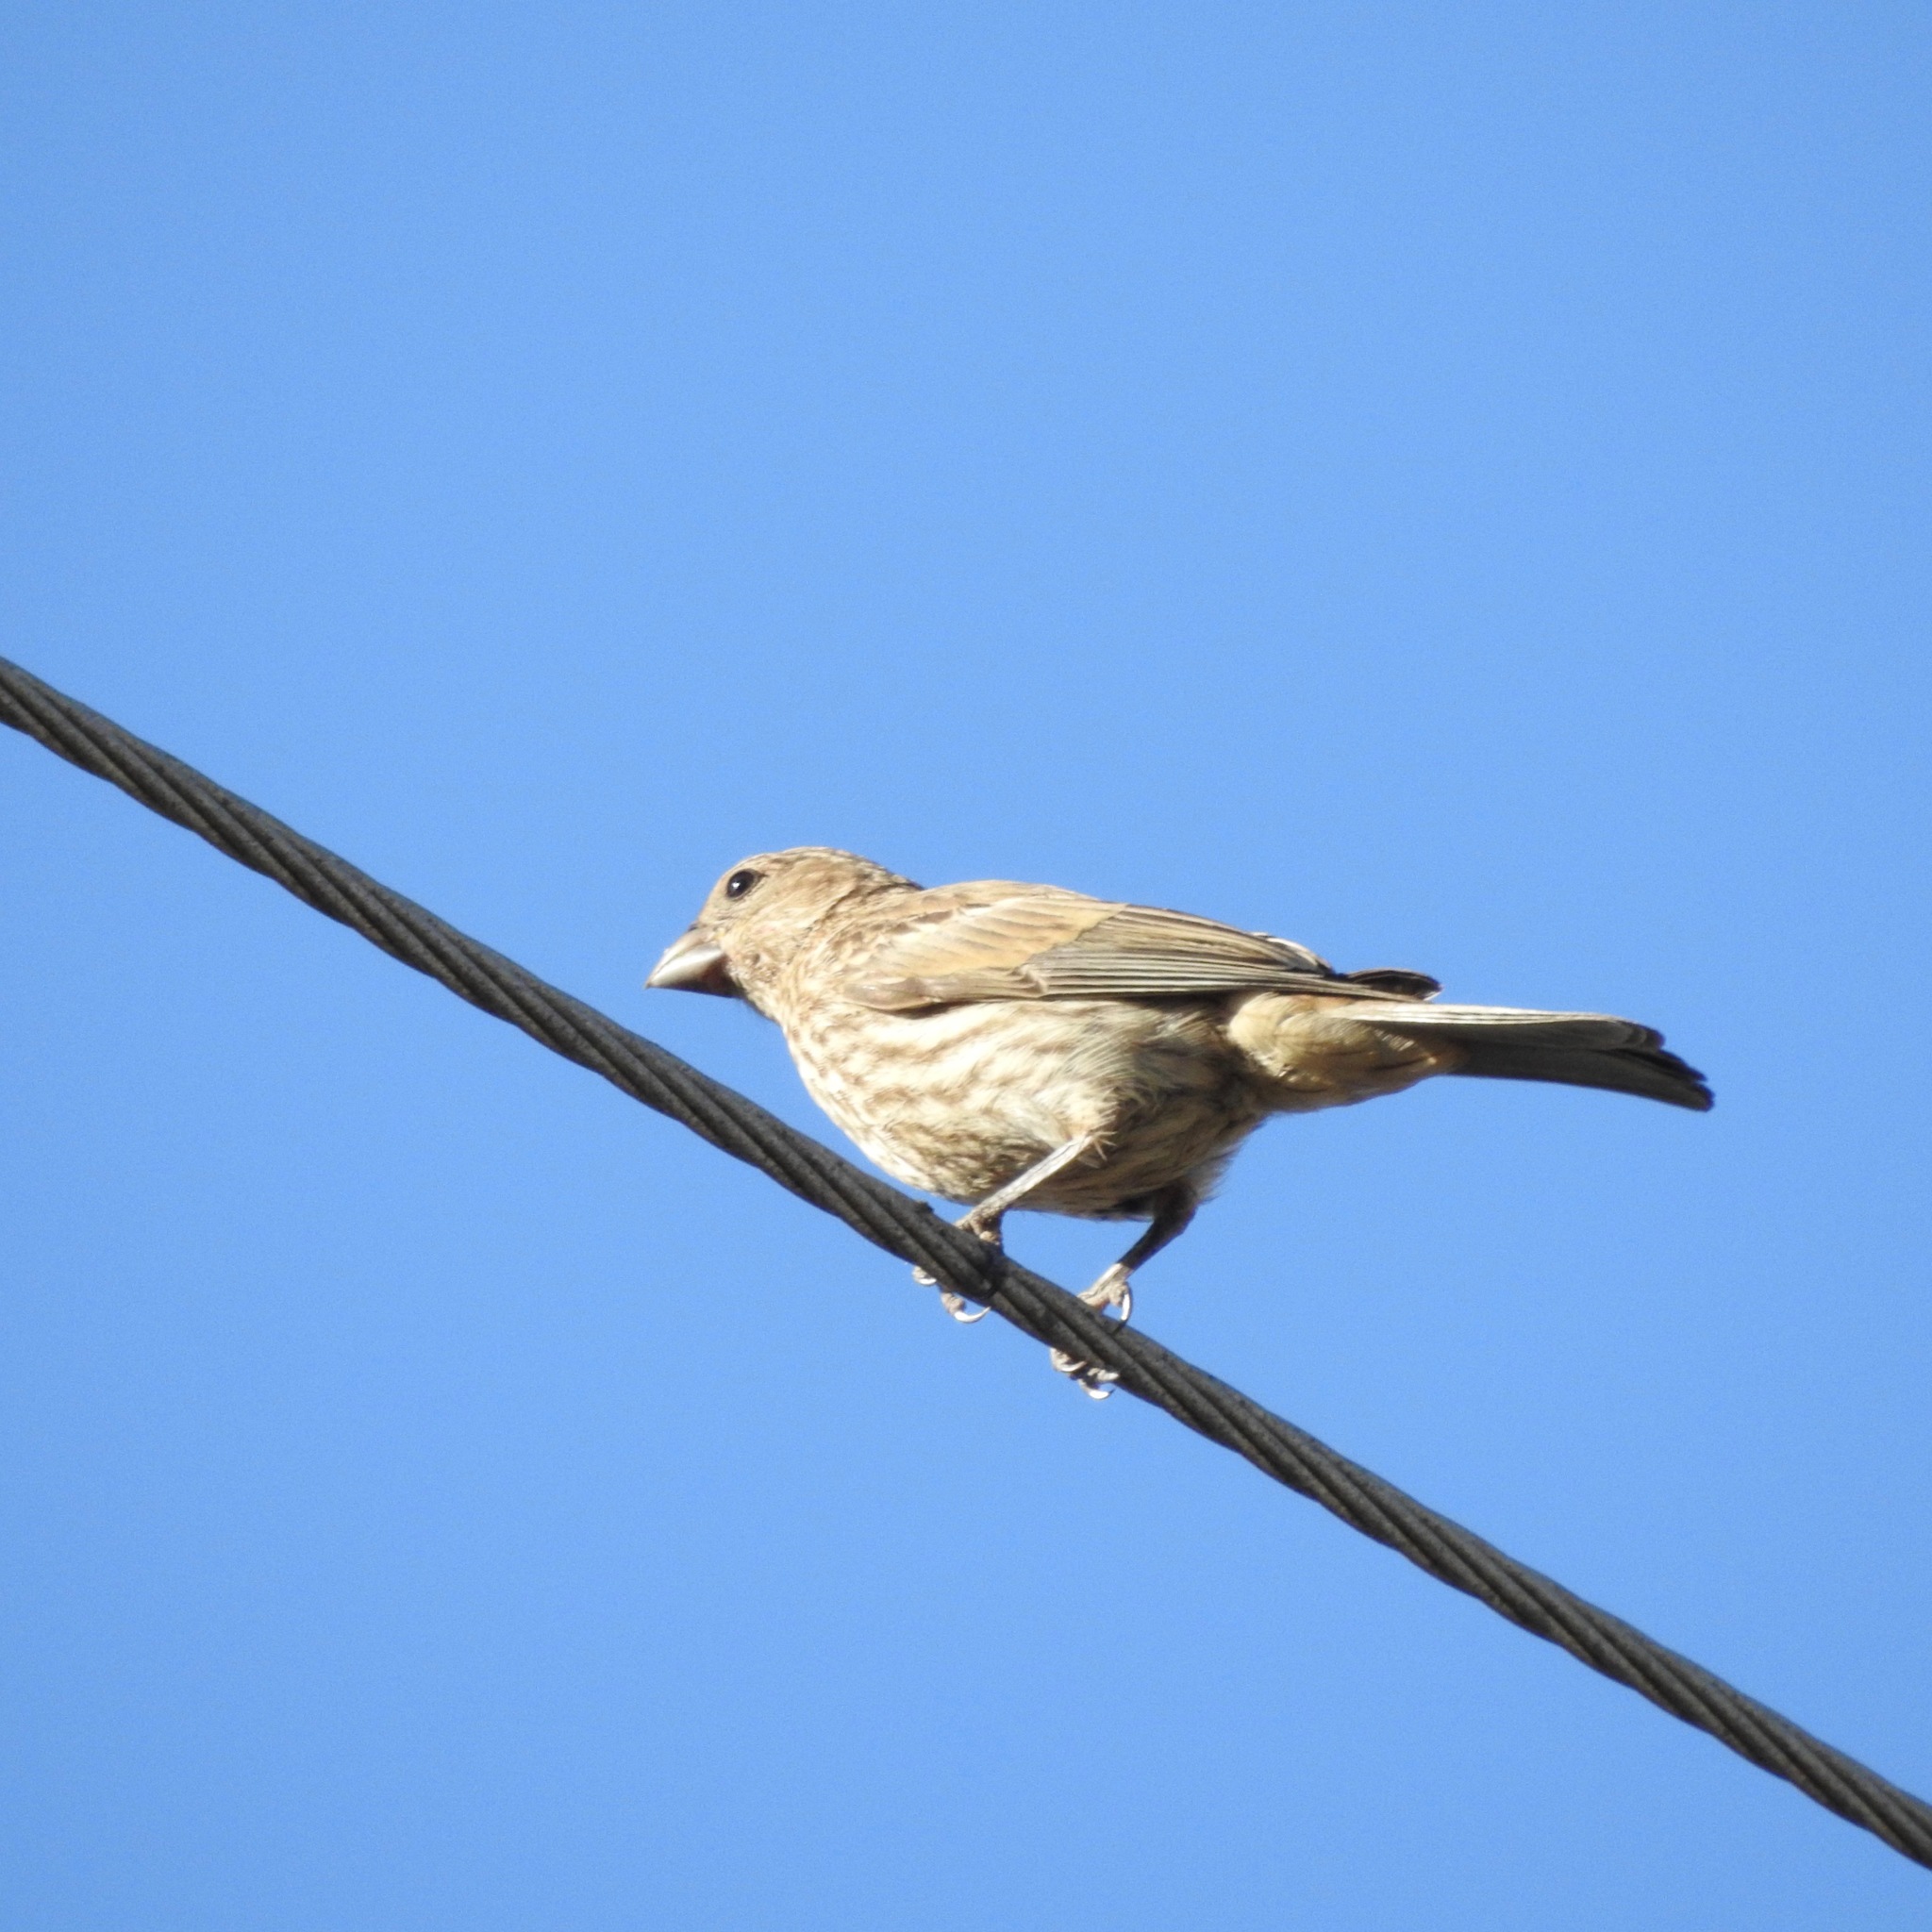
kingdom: Animalia
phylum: Chordata
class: Aves
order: Passeriformes
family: Fringillidae
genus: Haemorhous
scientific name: Haemorhous mexicanus
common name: House finch
